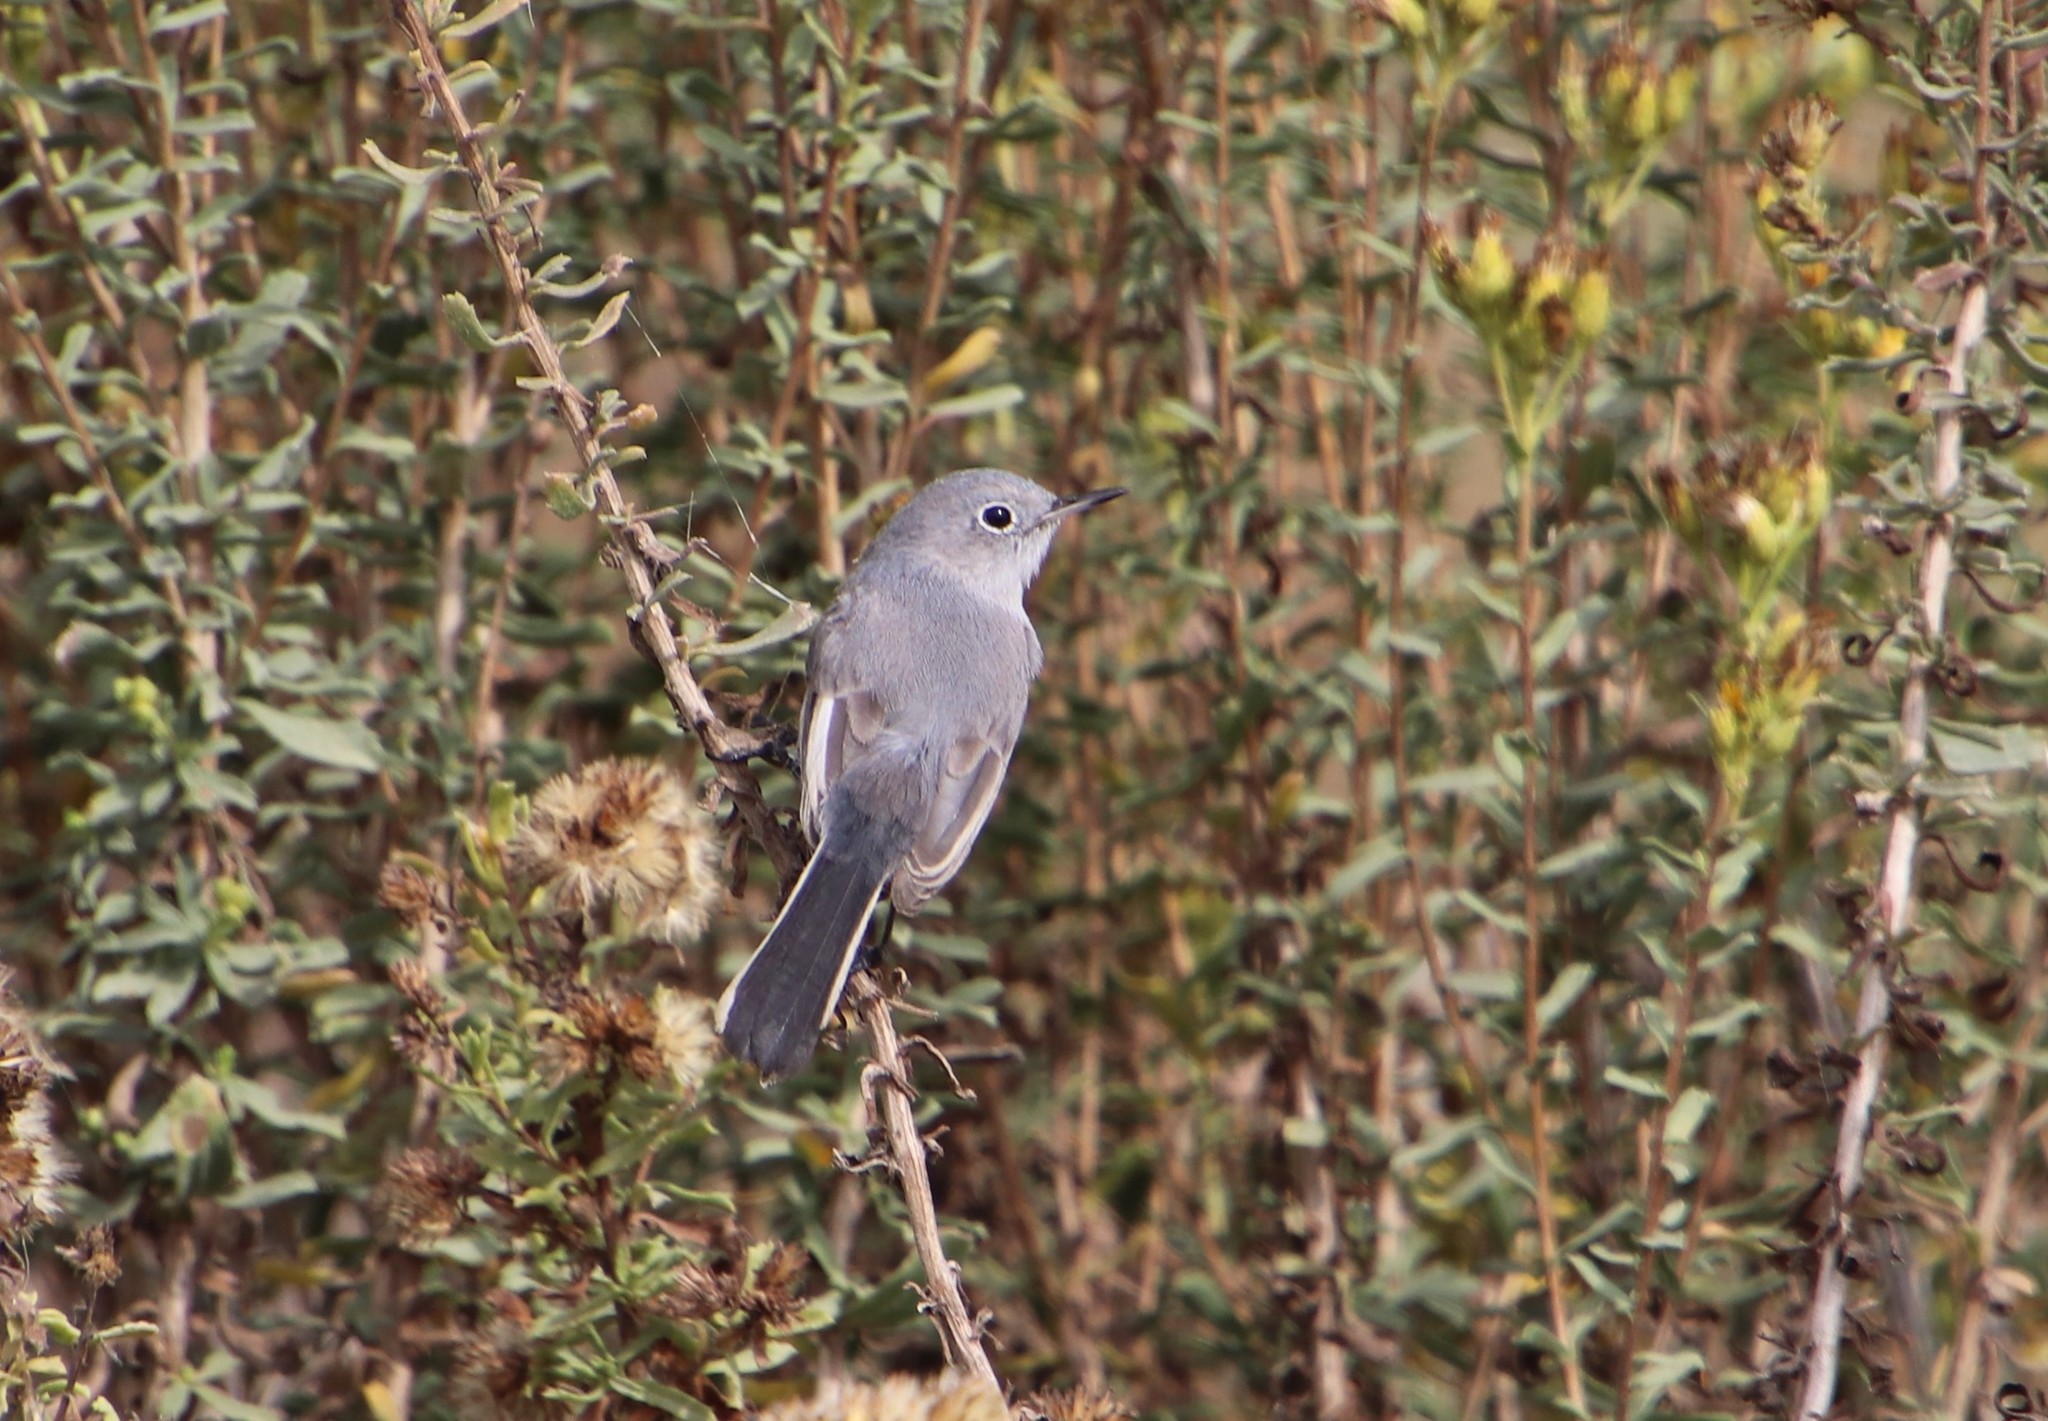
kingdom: Animalia
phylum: Chordata
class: Aves
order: Passeriformes
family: Polioptilidae
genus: Polioptila
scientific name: Polioptila caerulea
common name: Blue-gray gnatcatcher
